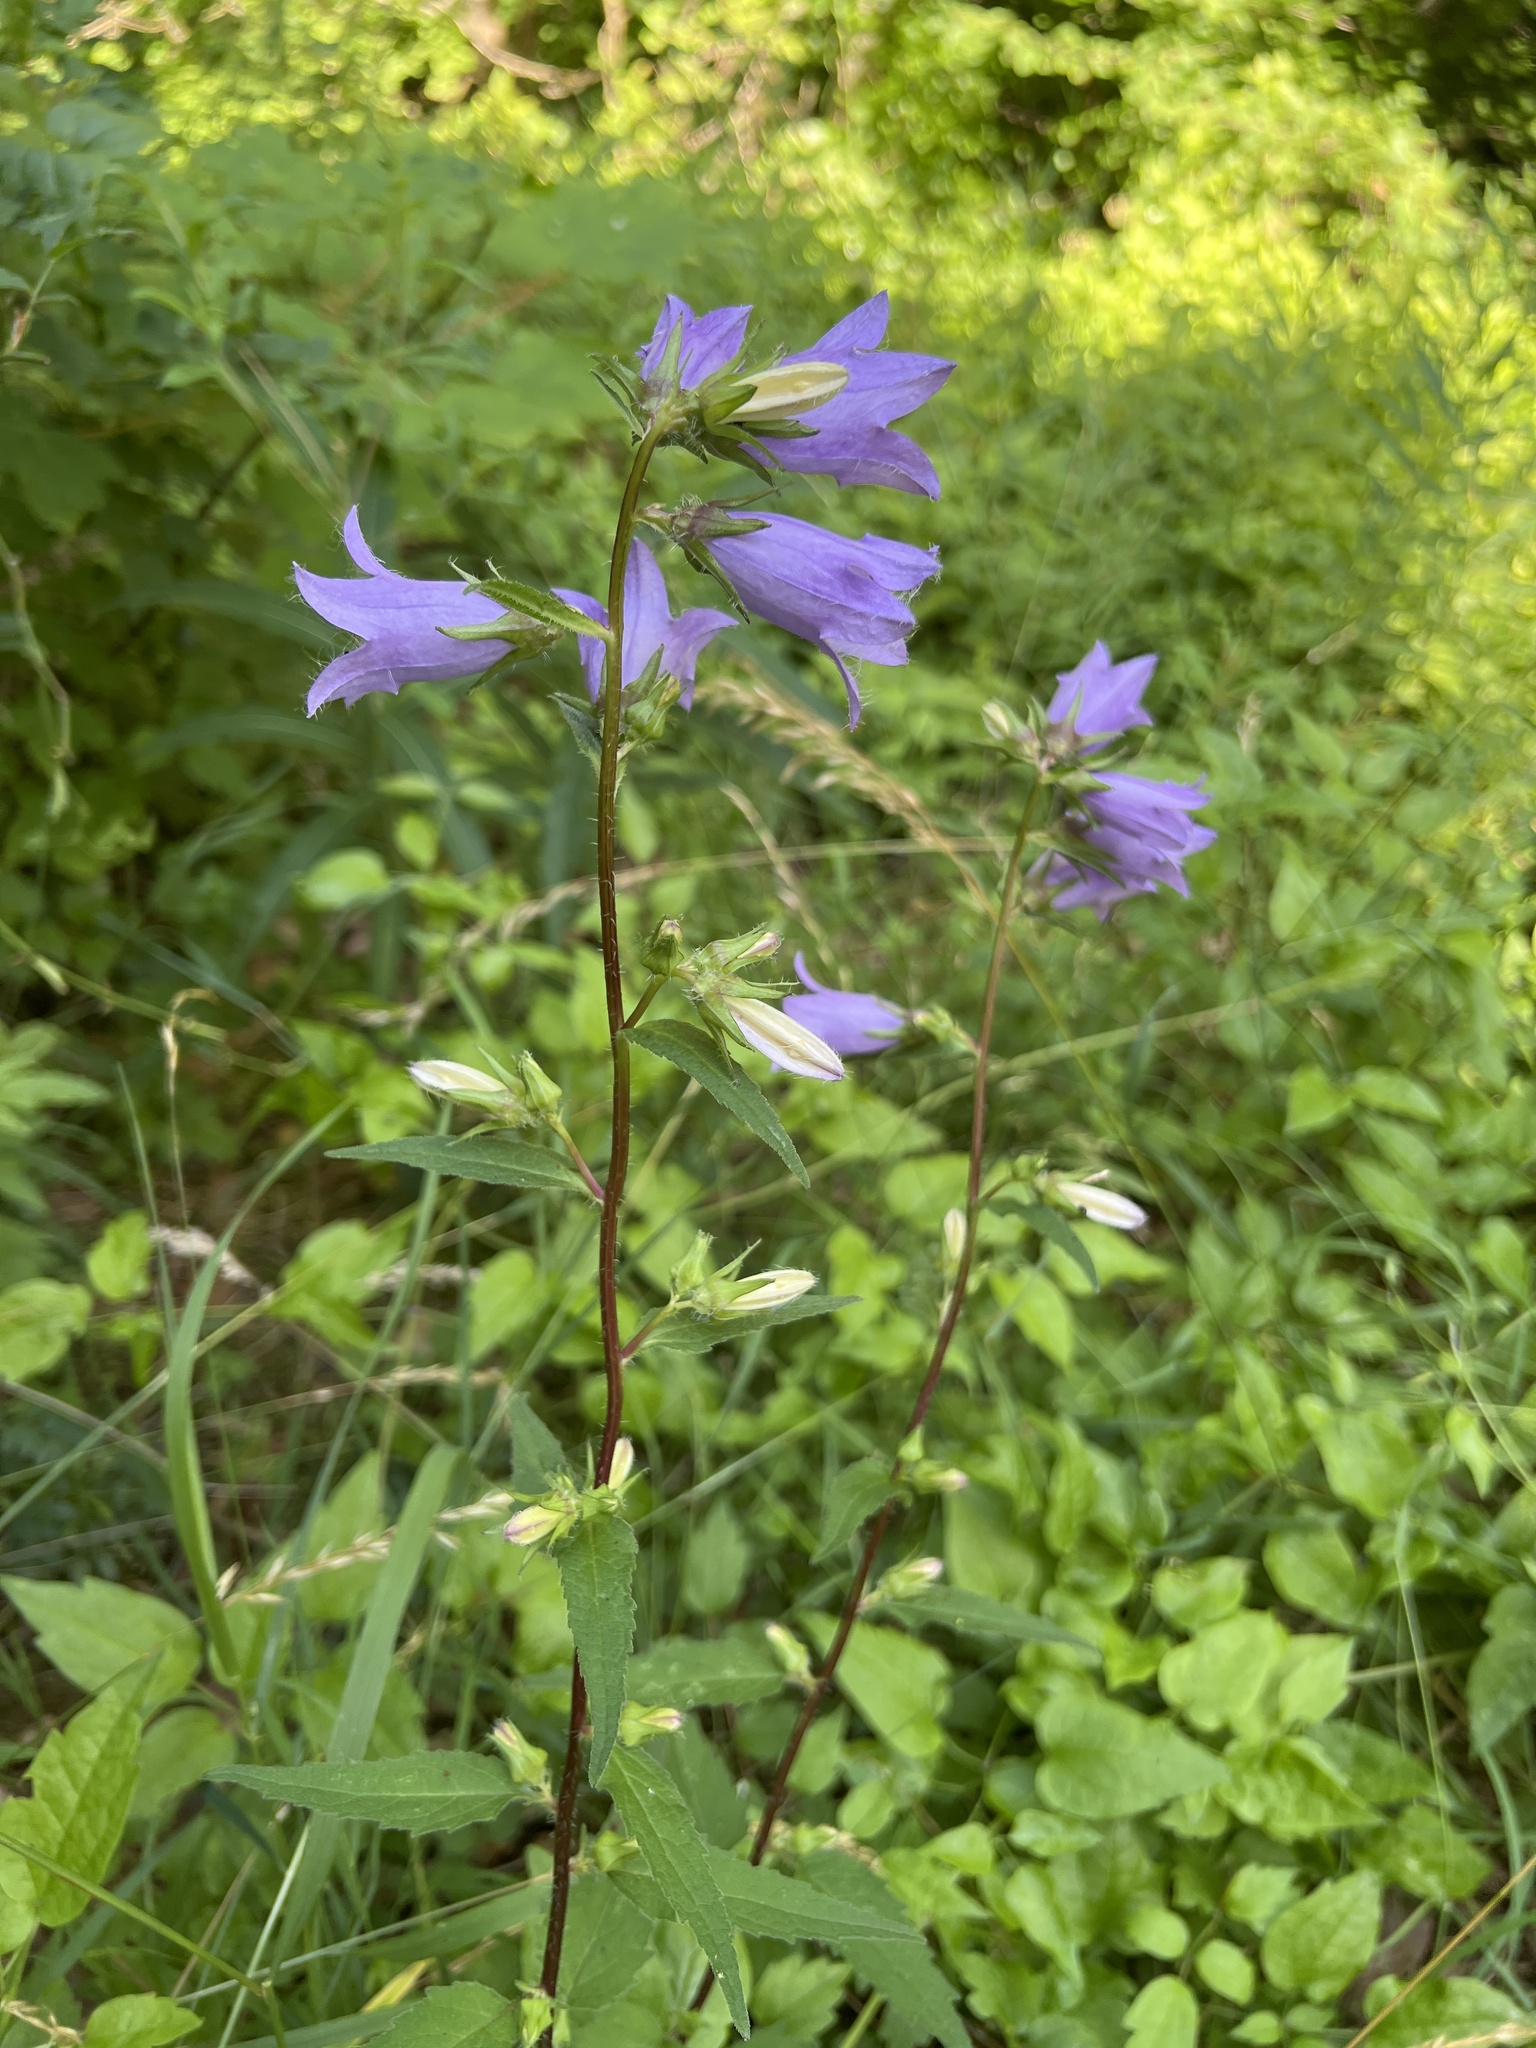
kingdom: Plantae
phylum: Tracheophyta
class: Magnoliopsida
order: Asterales
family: Campanulaceae
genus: Campanula
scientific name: Campanula trachelium
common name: Nettle-leaved bellflower
